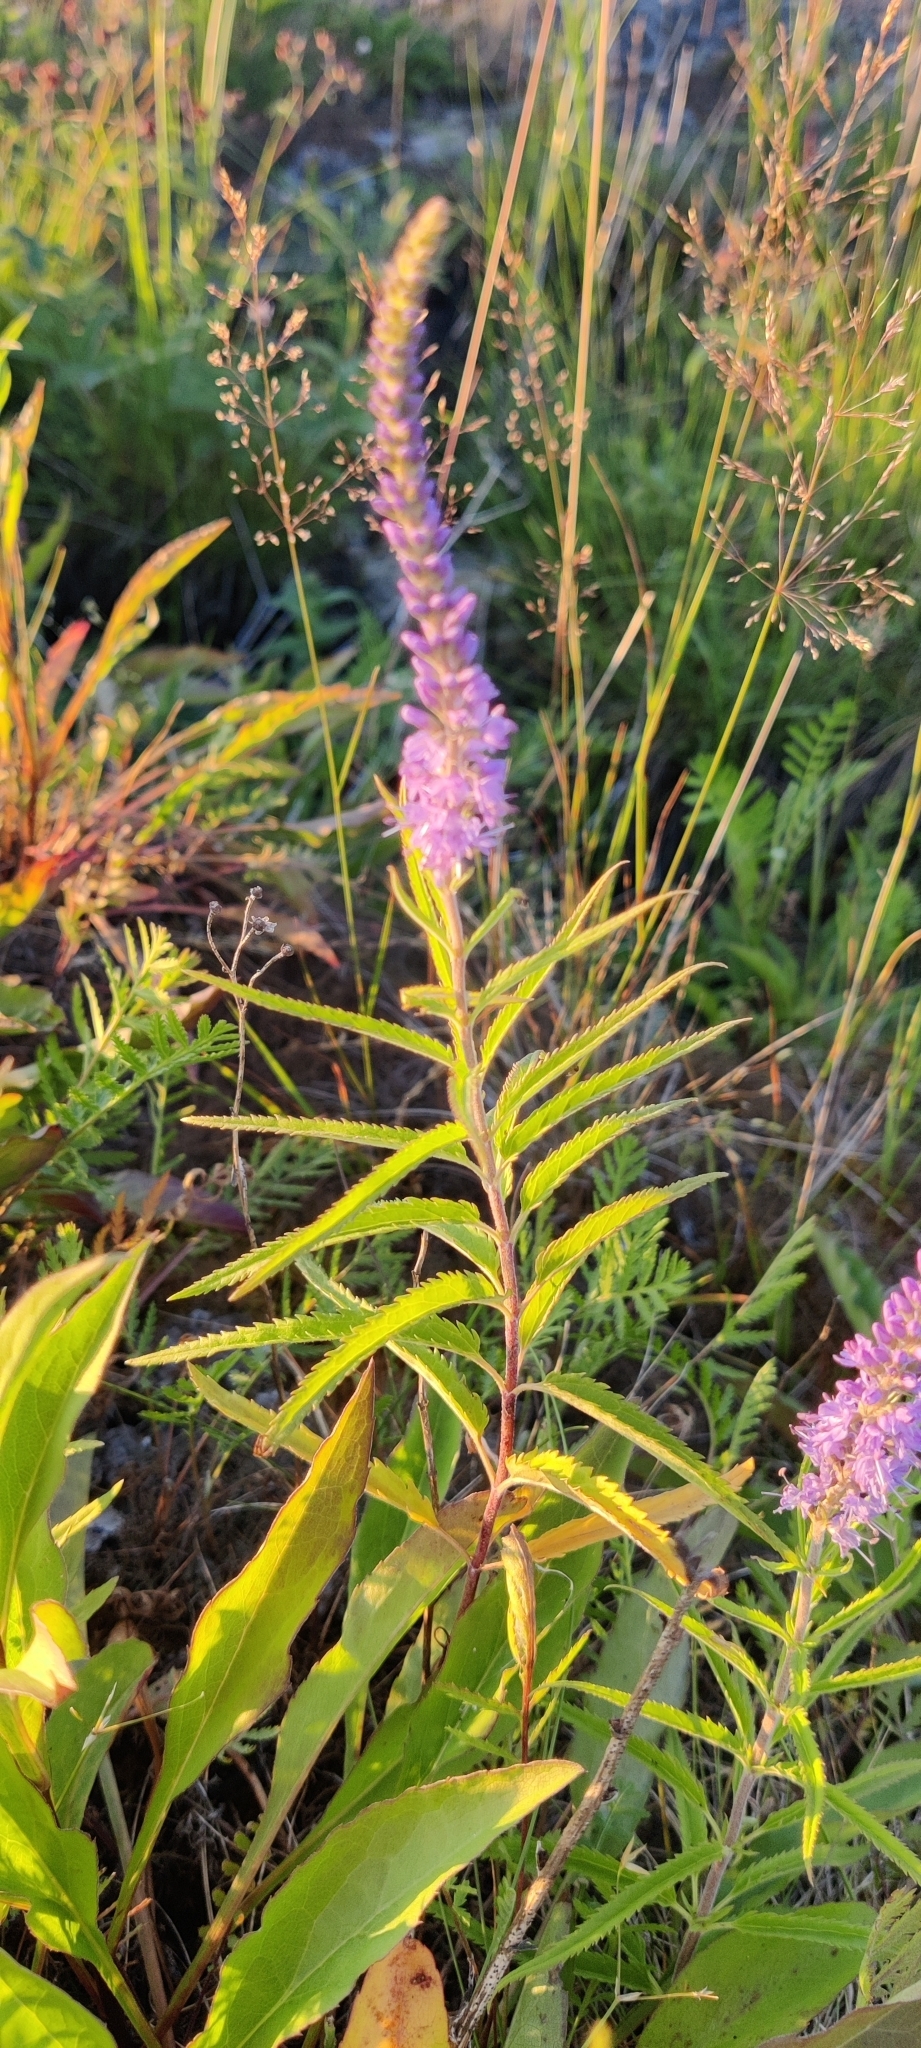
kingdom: Plantae
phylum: Tracheophyta
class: Magnoliopsida
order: Lamiales
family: Plantaginaceae
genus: Veronica
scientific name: Veronica longifolia
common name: Garden speedwell
